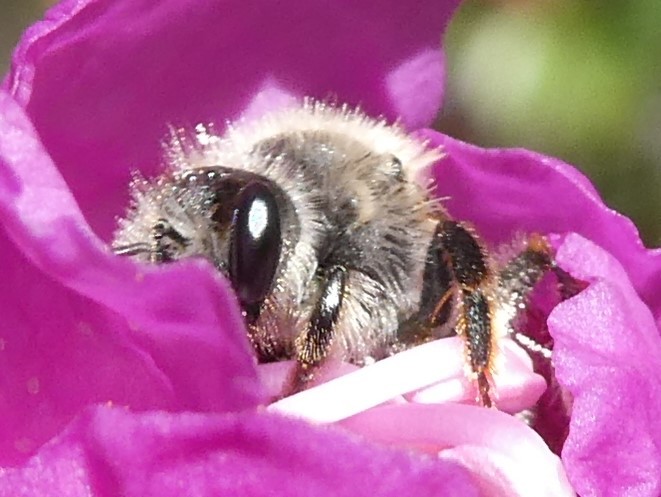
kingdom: Animalia
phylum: Arthropoda
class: Insecta
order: Hymenoptera
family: Andrenidae
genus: Andrena
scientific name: Andrena rufosignata
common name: Brown-fovea miner
